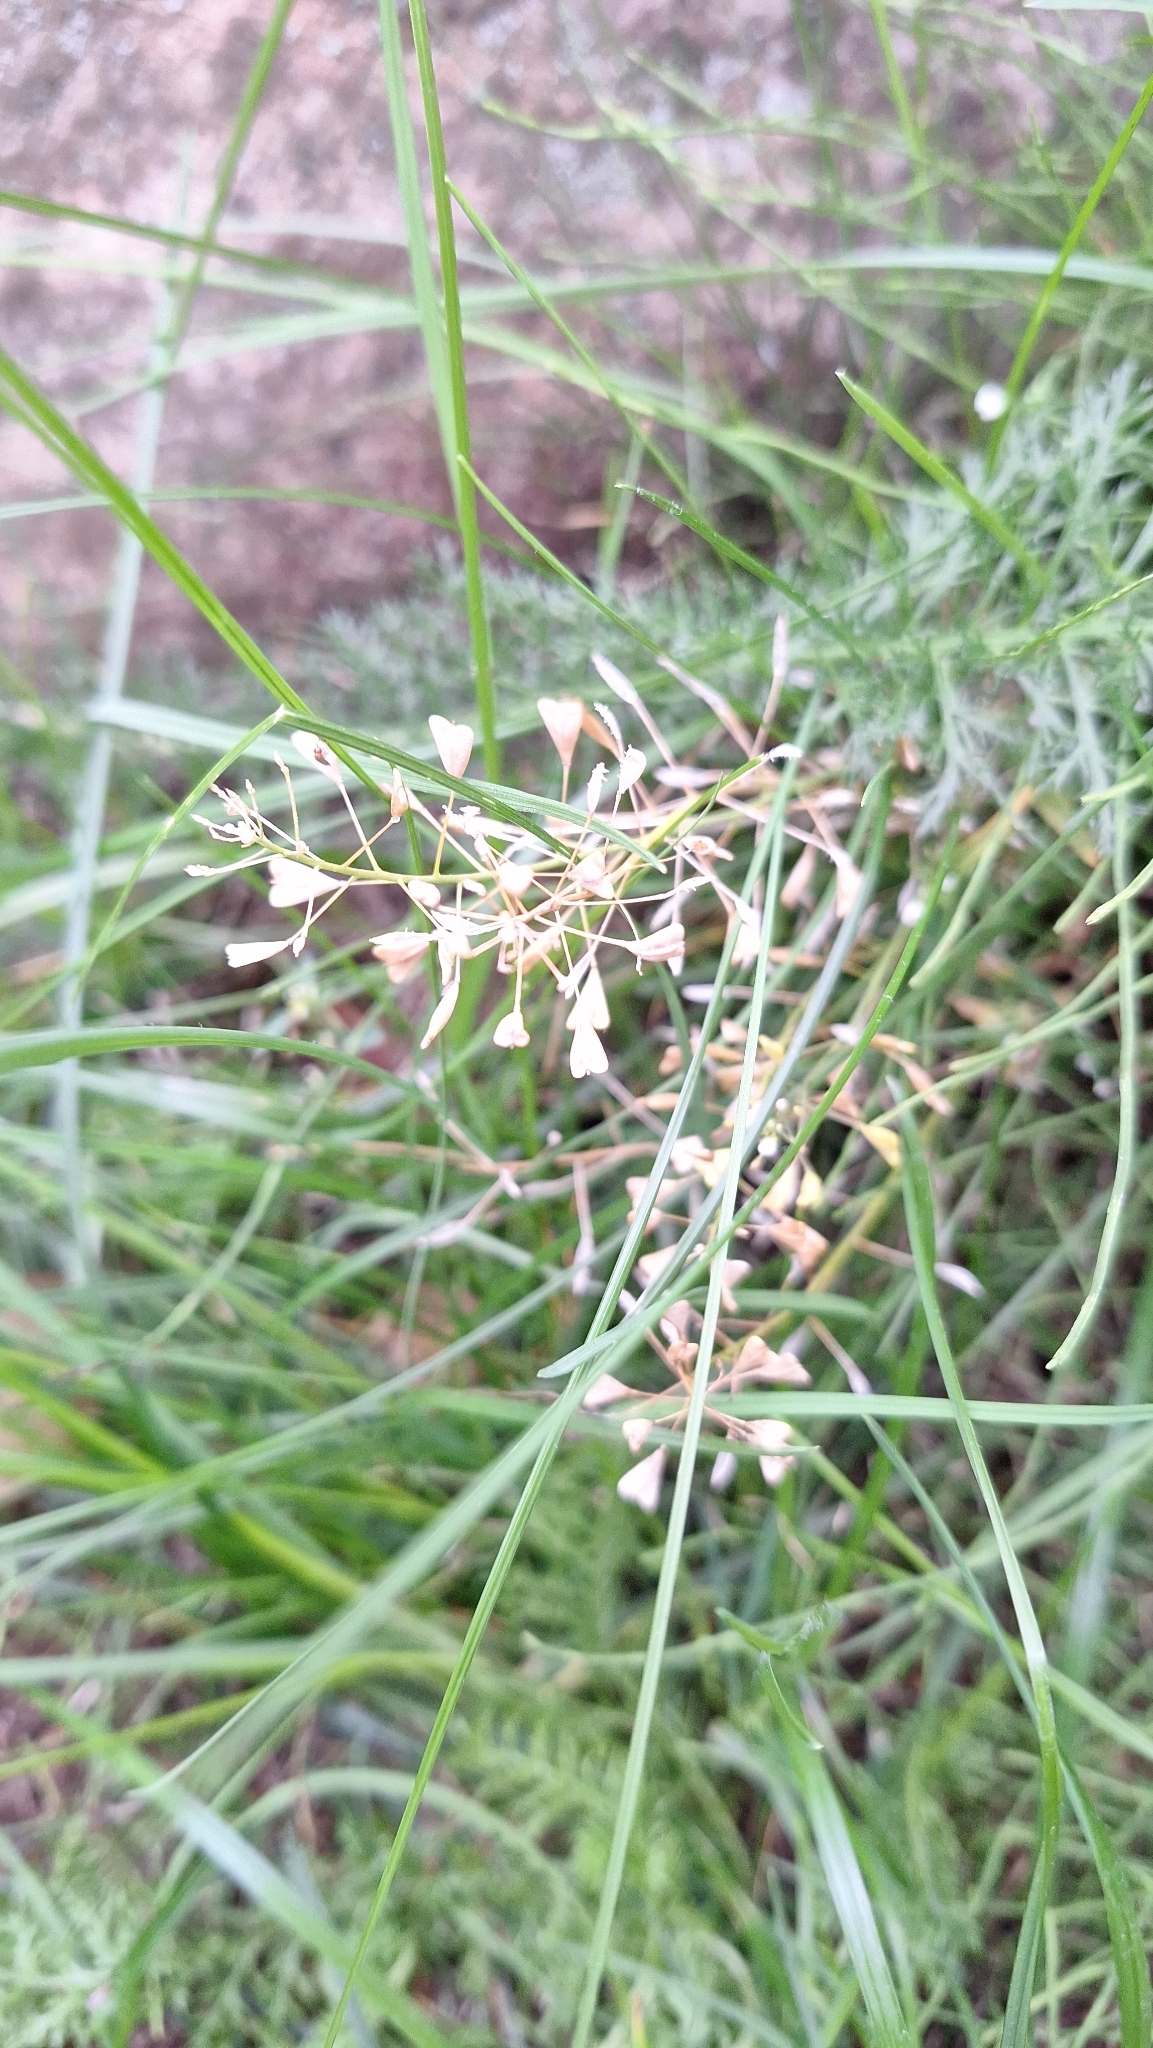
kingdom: Plantae
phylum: Tracheophyta
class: Magnoliopsida
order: Brassicales
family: Brassicaceae
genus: Capsella
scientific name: Capsella bursa-pastoris
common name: Shepherd's purse
